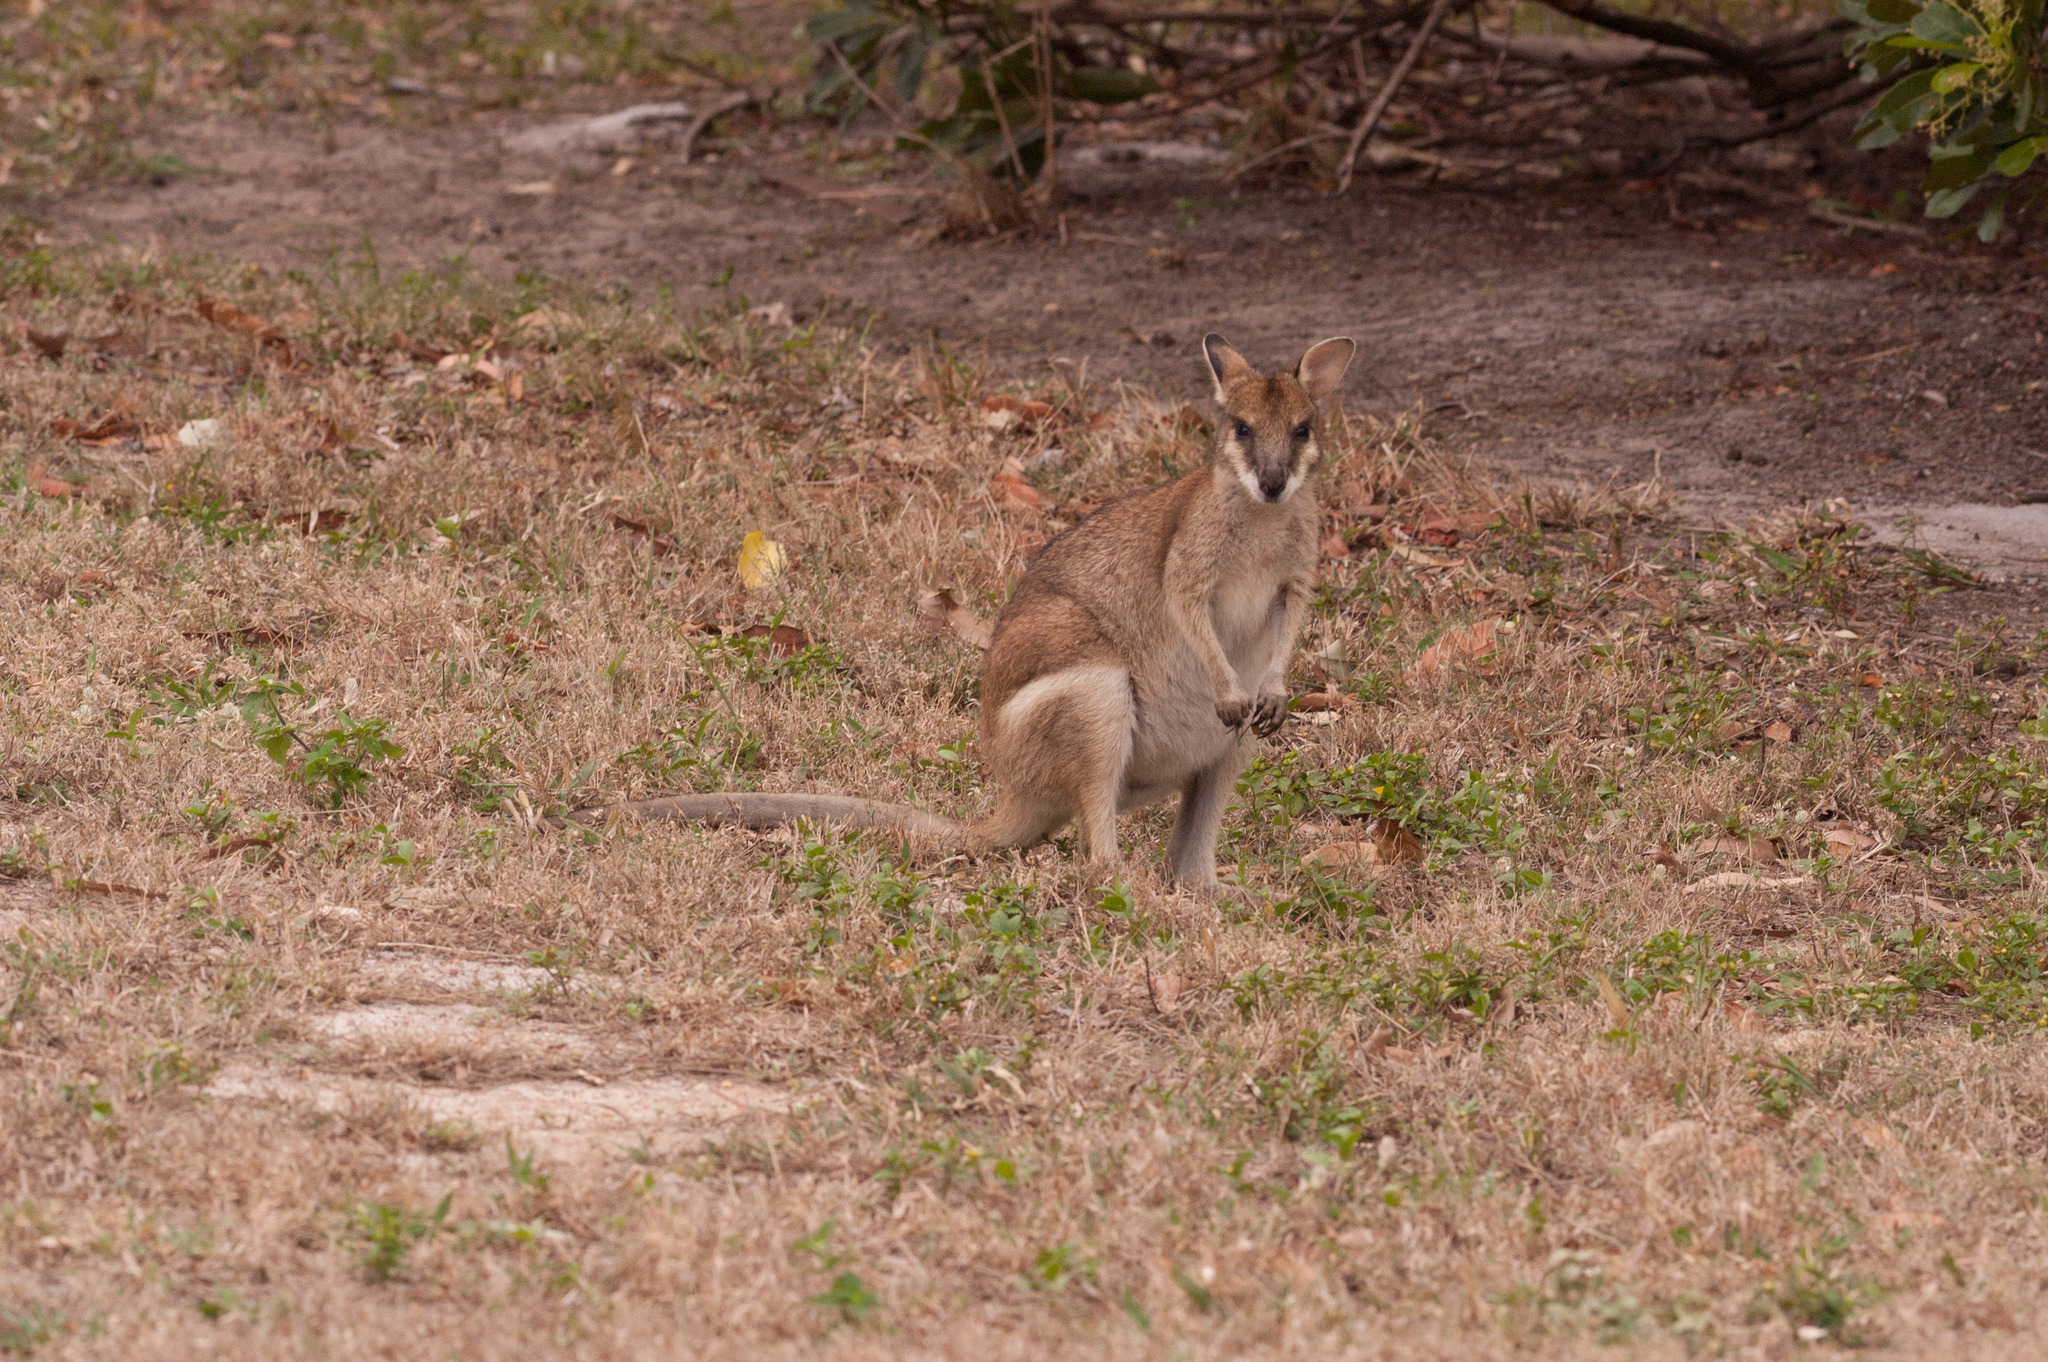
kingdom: Animalia
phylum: Chordata
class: Mammalia
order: Diprotodontia
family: Macropodidae
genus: Macropus
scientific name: Macropus agilis
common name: Agile wallaby
